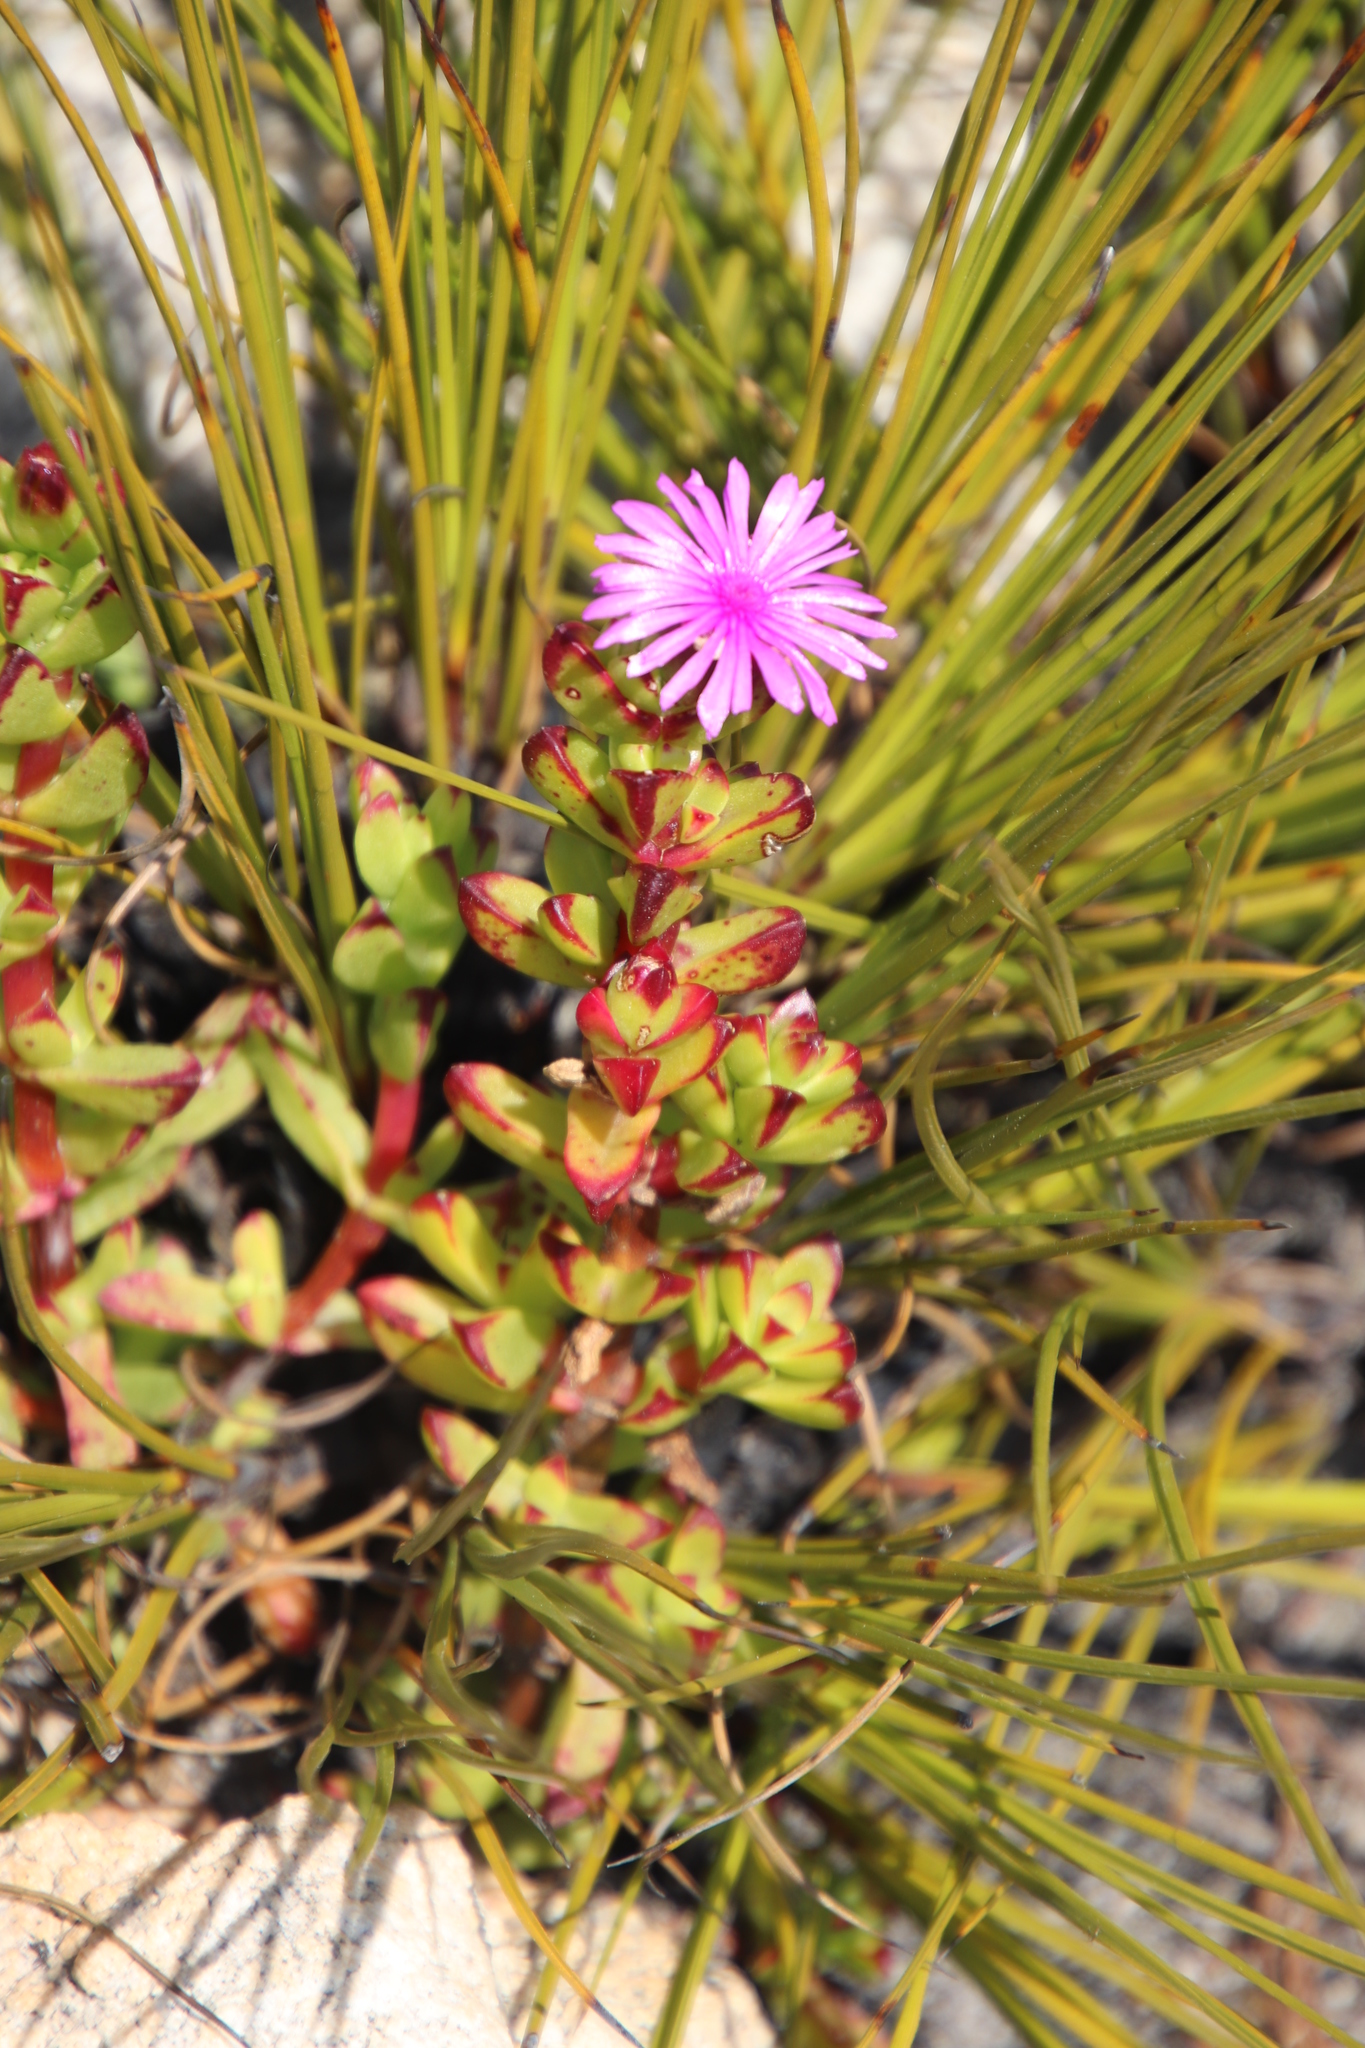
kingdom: Plantae
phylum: Tracheophyta
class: Magnoliopsida
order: Caryophyllales
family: Aizoaceae
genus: Erepsia
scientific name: Erepsia inclaudens
